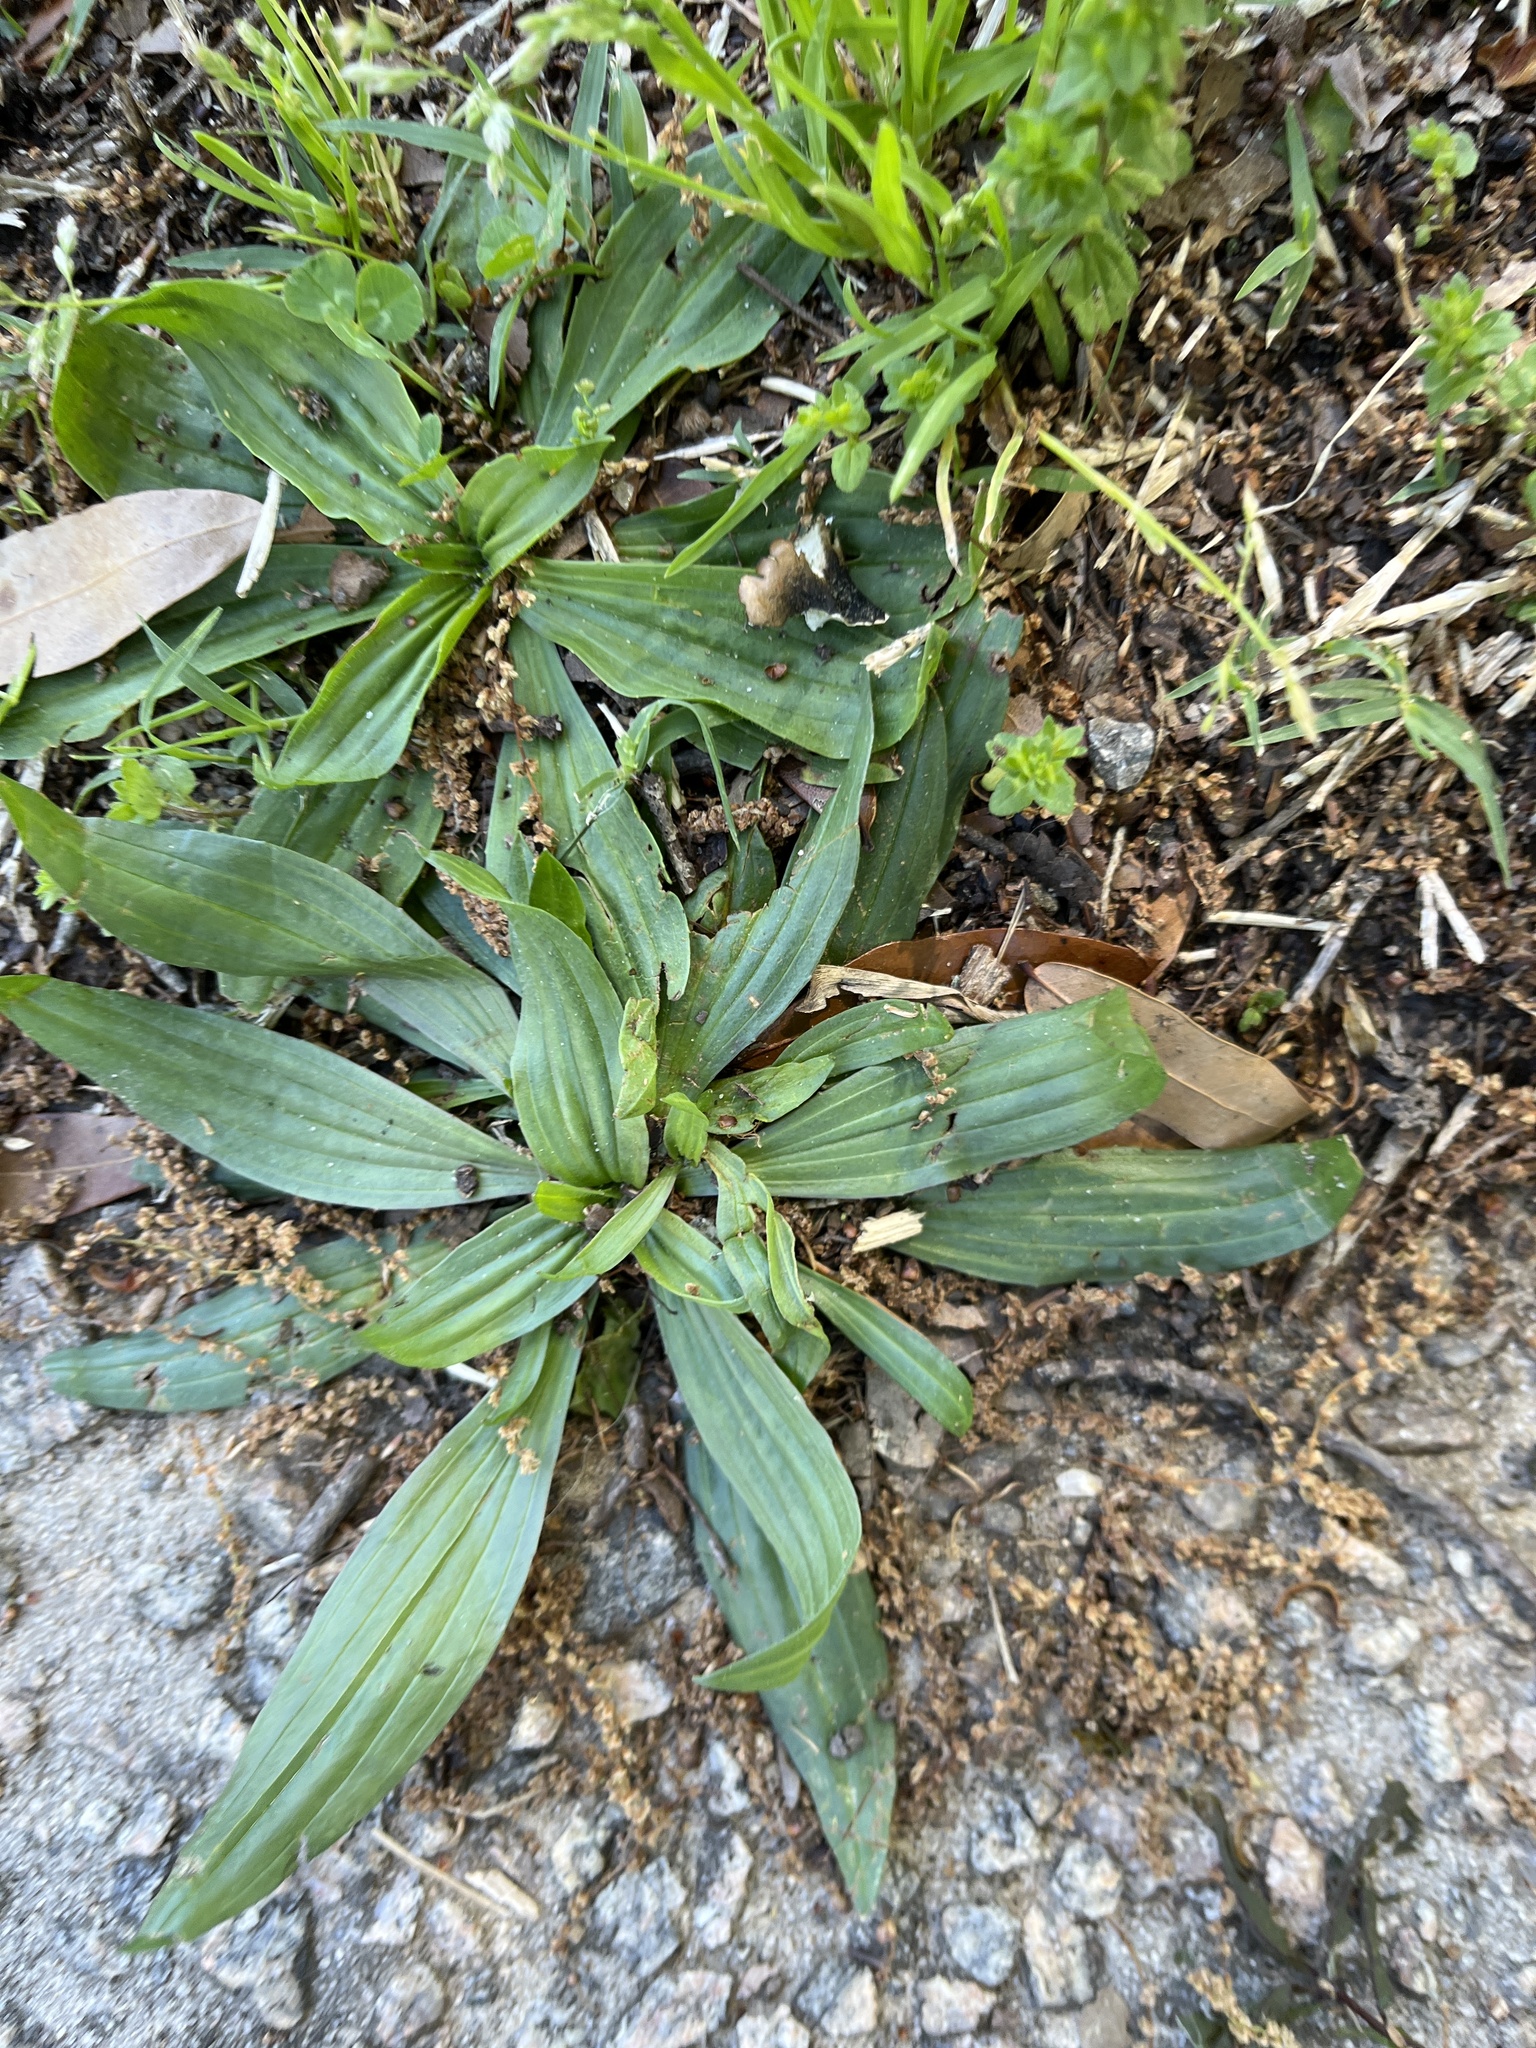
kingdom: Plantae
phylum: Tracheophyta
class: Magnoliopsida
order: Lamiales
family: Plantaginaceae
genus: Plantago
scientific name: Plantago lanceolata
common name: Ribwort plantain
